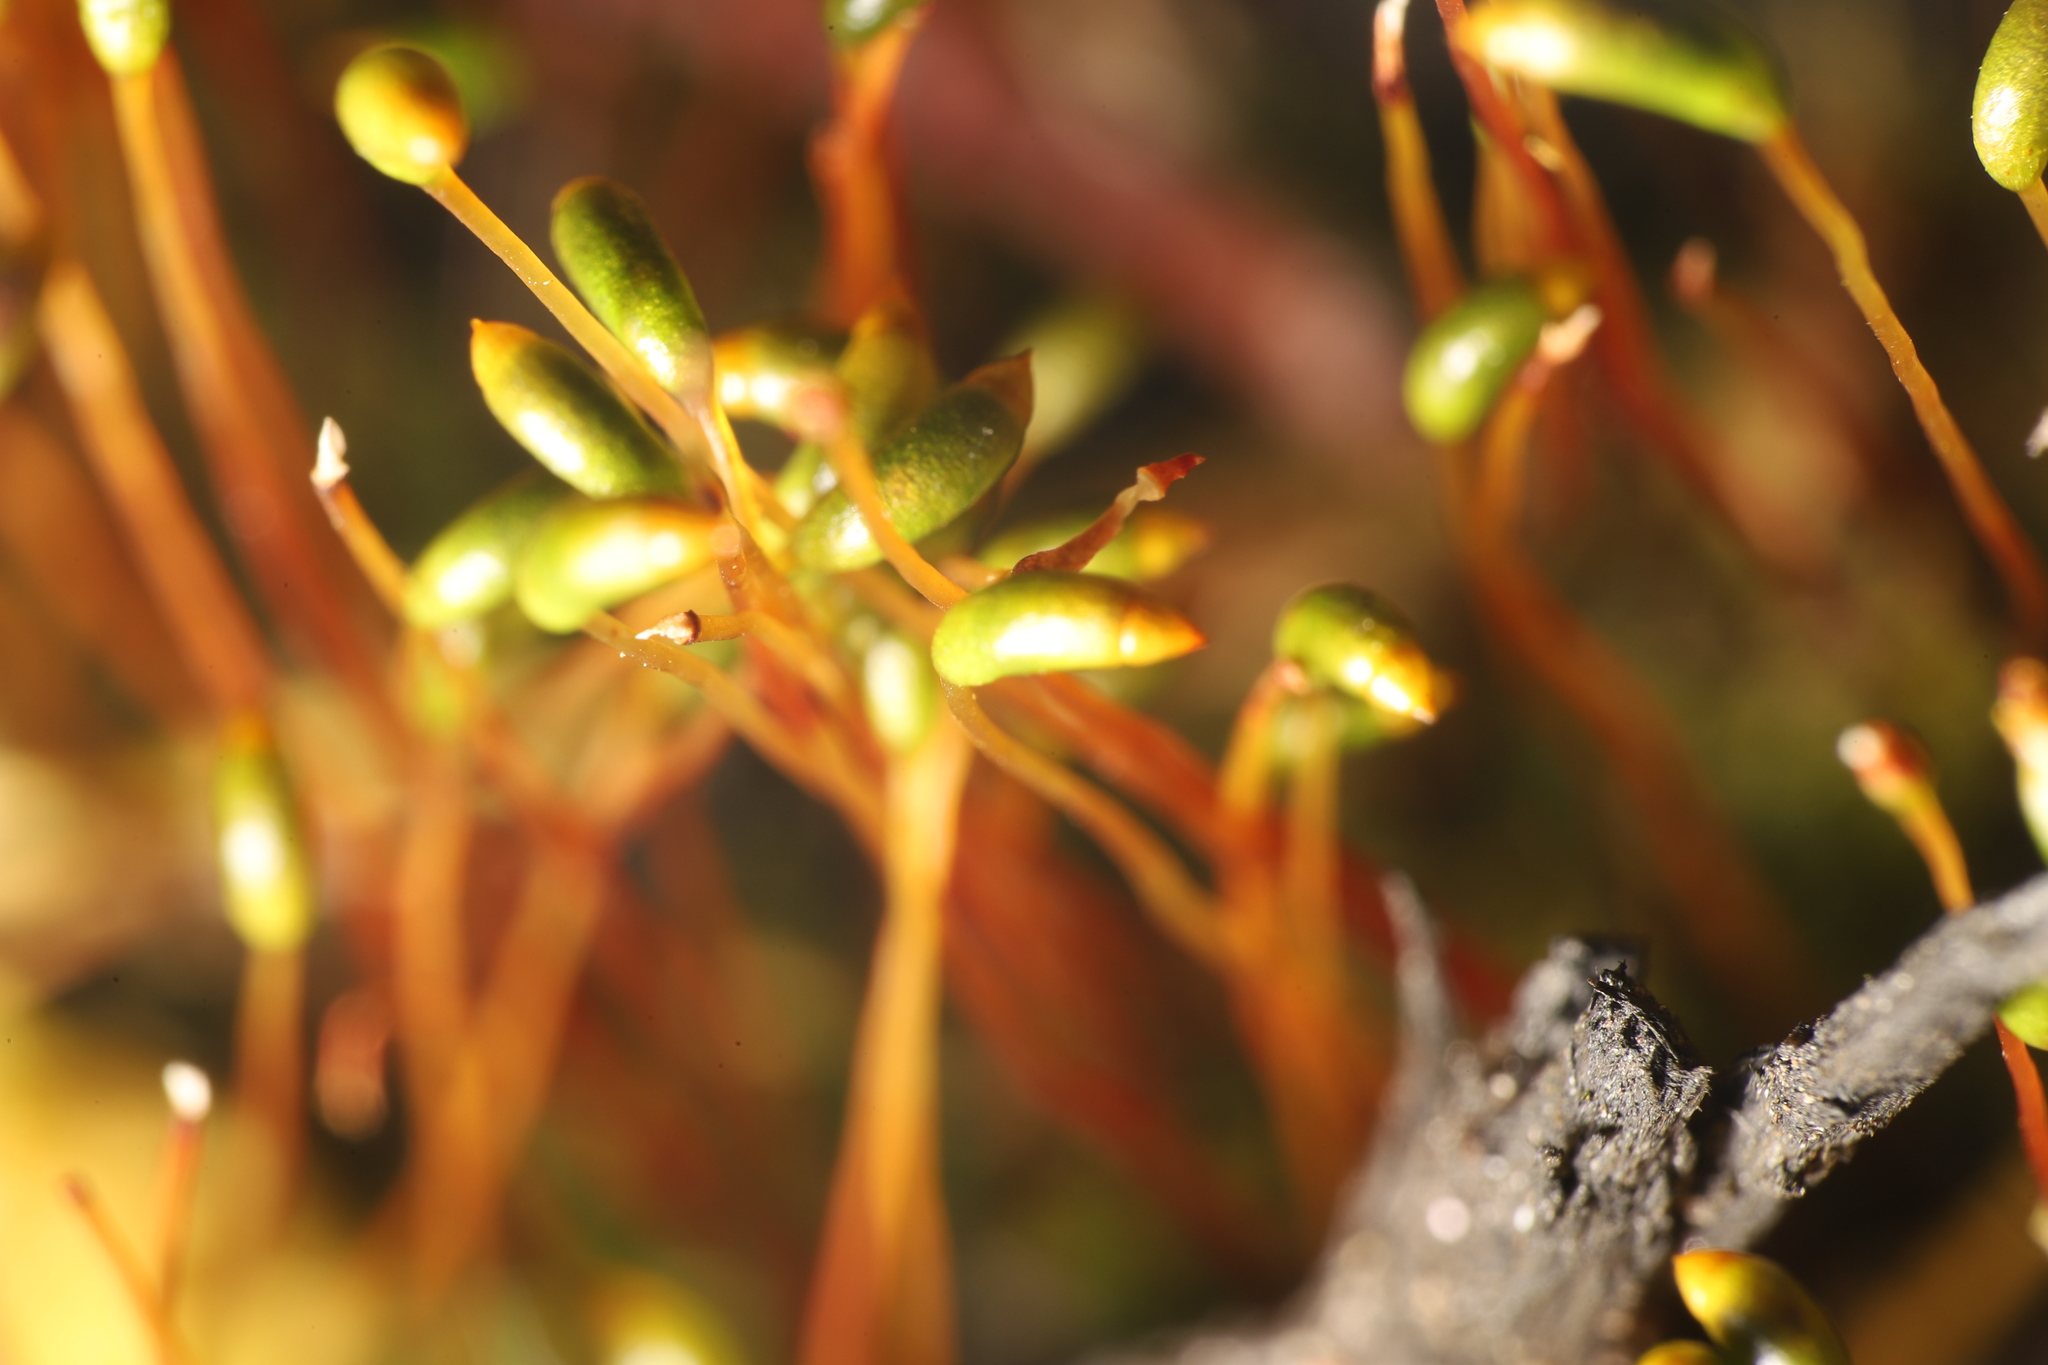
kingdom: Plantae
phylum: Bryophyta
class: Bryopsida
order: Hypnales
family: Amblystegiaceae
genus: Hygroamblystegium
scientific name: Hygroamblystegium varium
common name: Willow feather-moss
